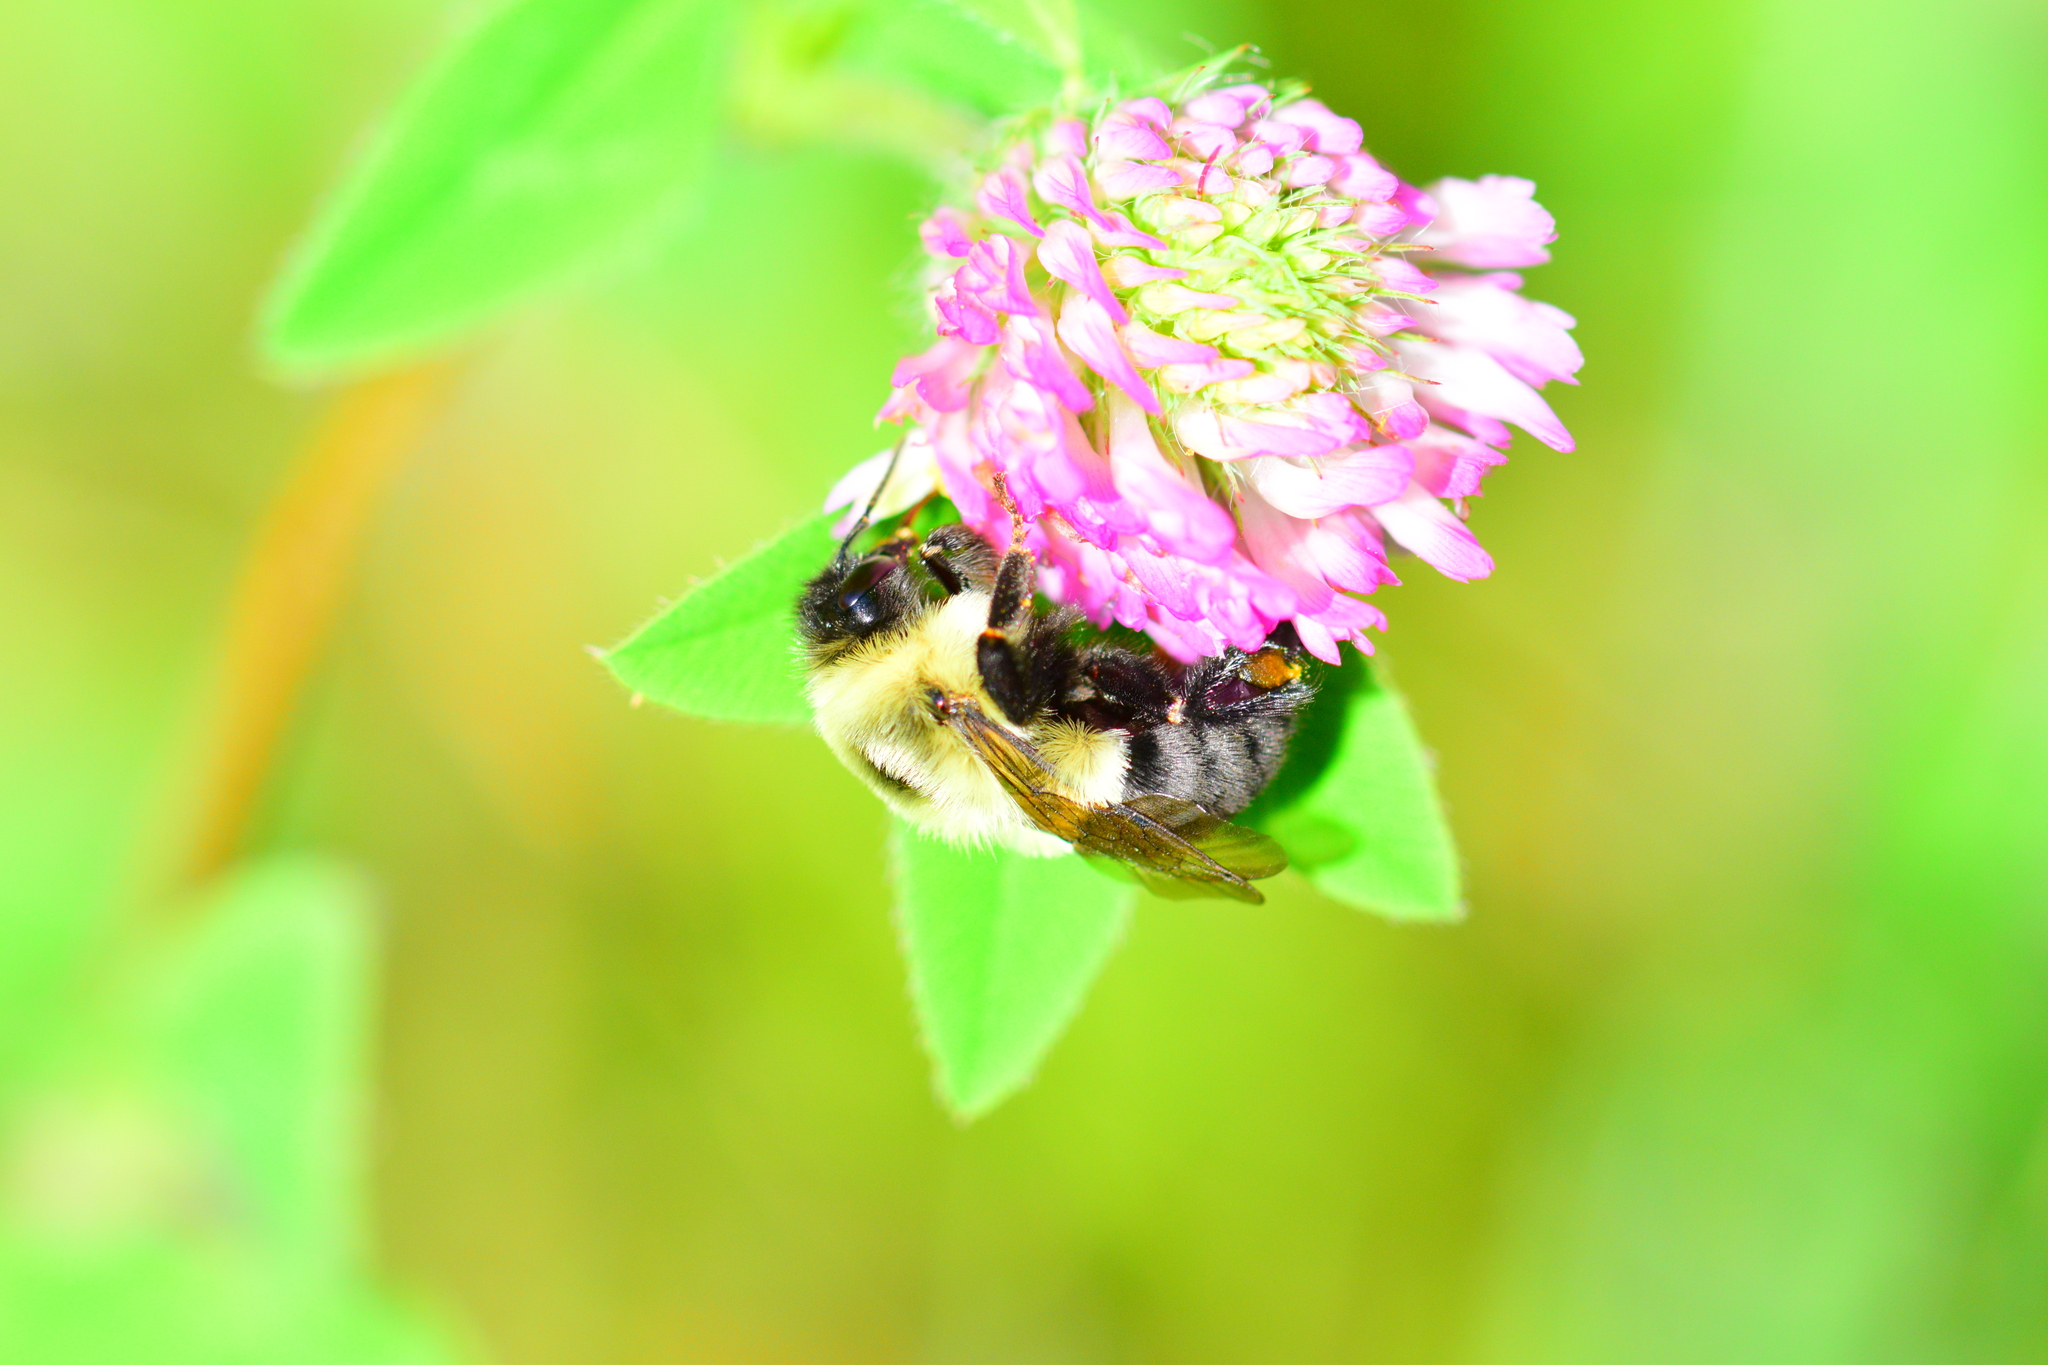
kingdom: Animalia
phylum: Arthropoda
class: Insecta
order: Hymenoptera
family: Apidae
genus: Bombus
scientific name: Bombus impatiens
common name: Common eastern bumble bee
